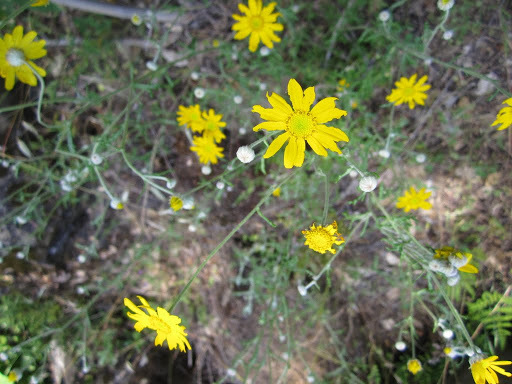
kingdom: Plantae
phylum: Tracheophyta
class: Magnoliopsida
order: Asterales
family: Asteraceae
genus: Eriophyllum
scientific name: Eriophyllum lanatum
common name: Common woolly-sunflower
